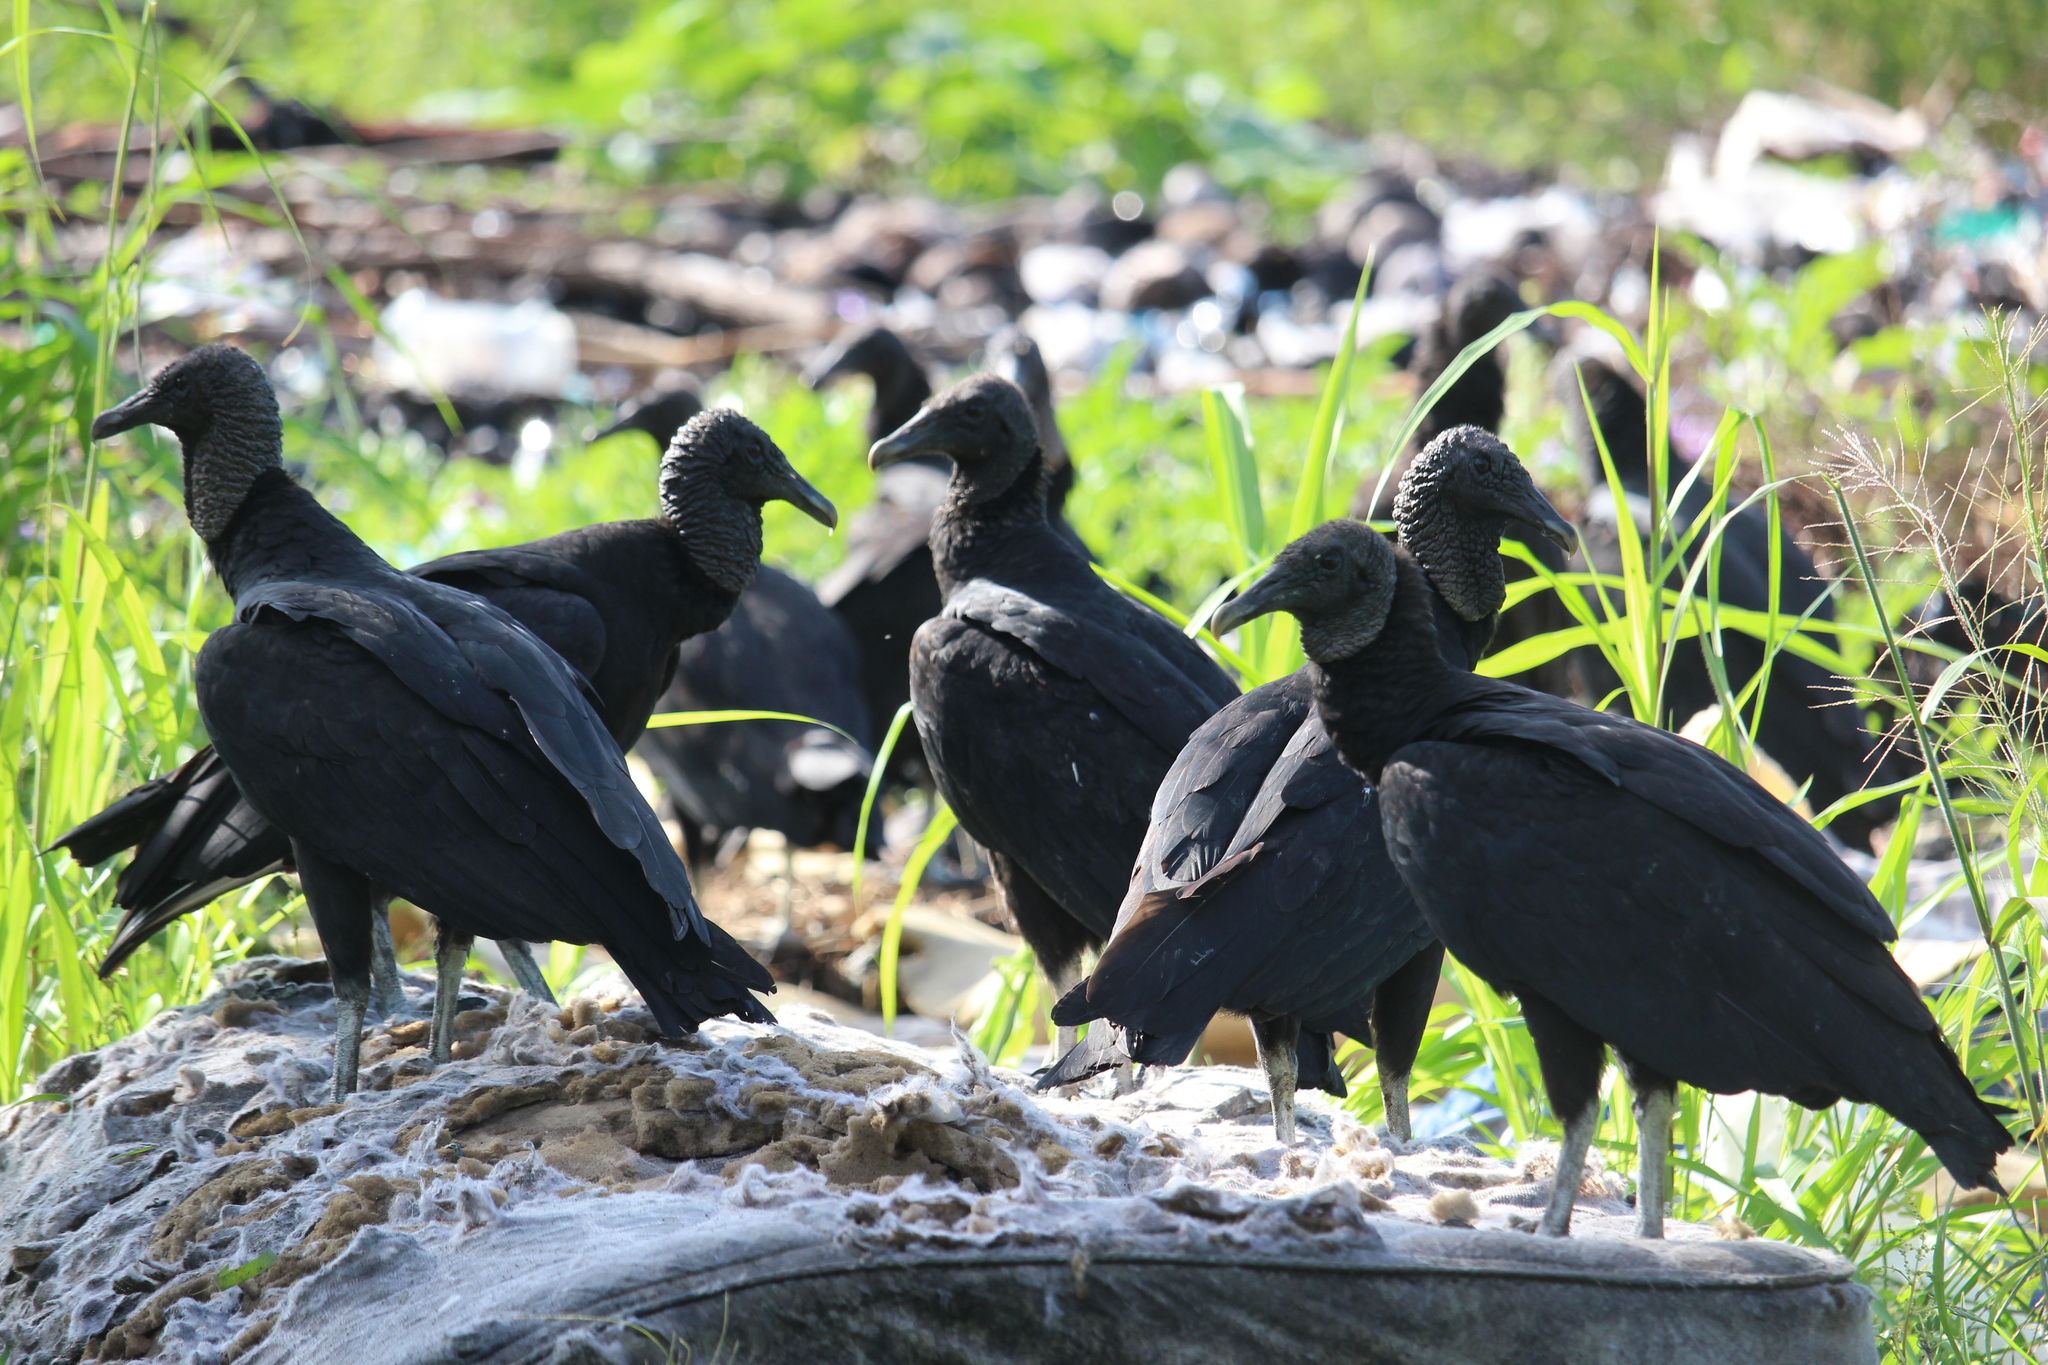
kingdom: Animalia
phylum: Chordata
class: Aves
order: Accipitriformes
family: Cathartidae
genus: Coragyps
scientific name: Coragyps atratus
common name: Black vulture
